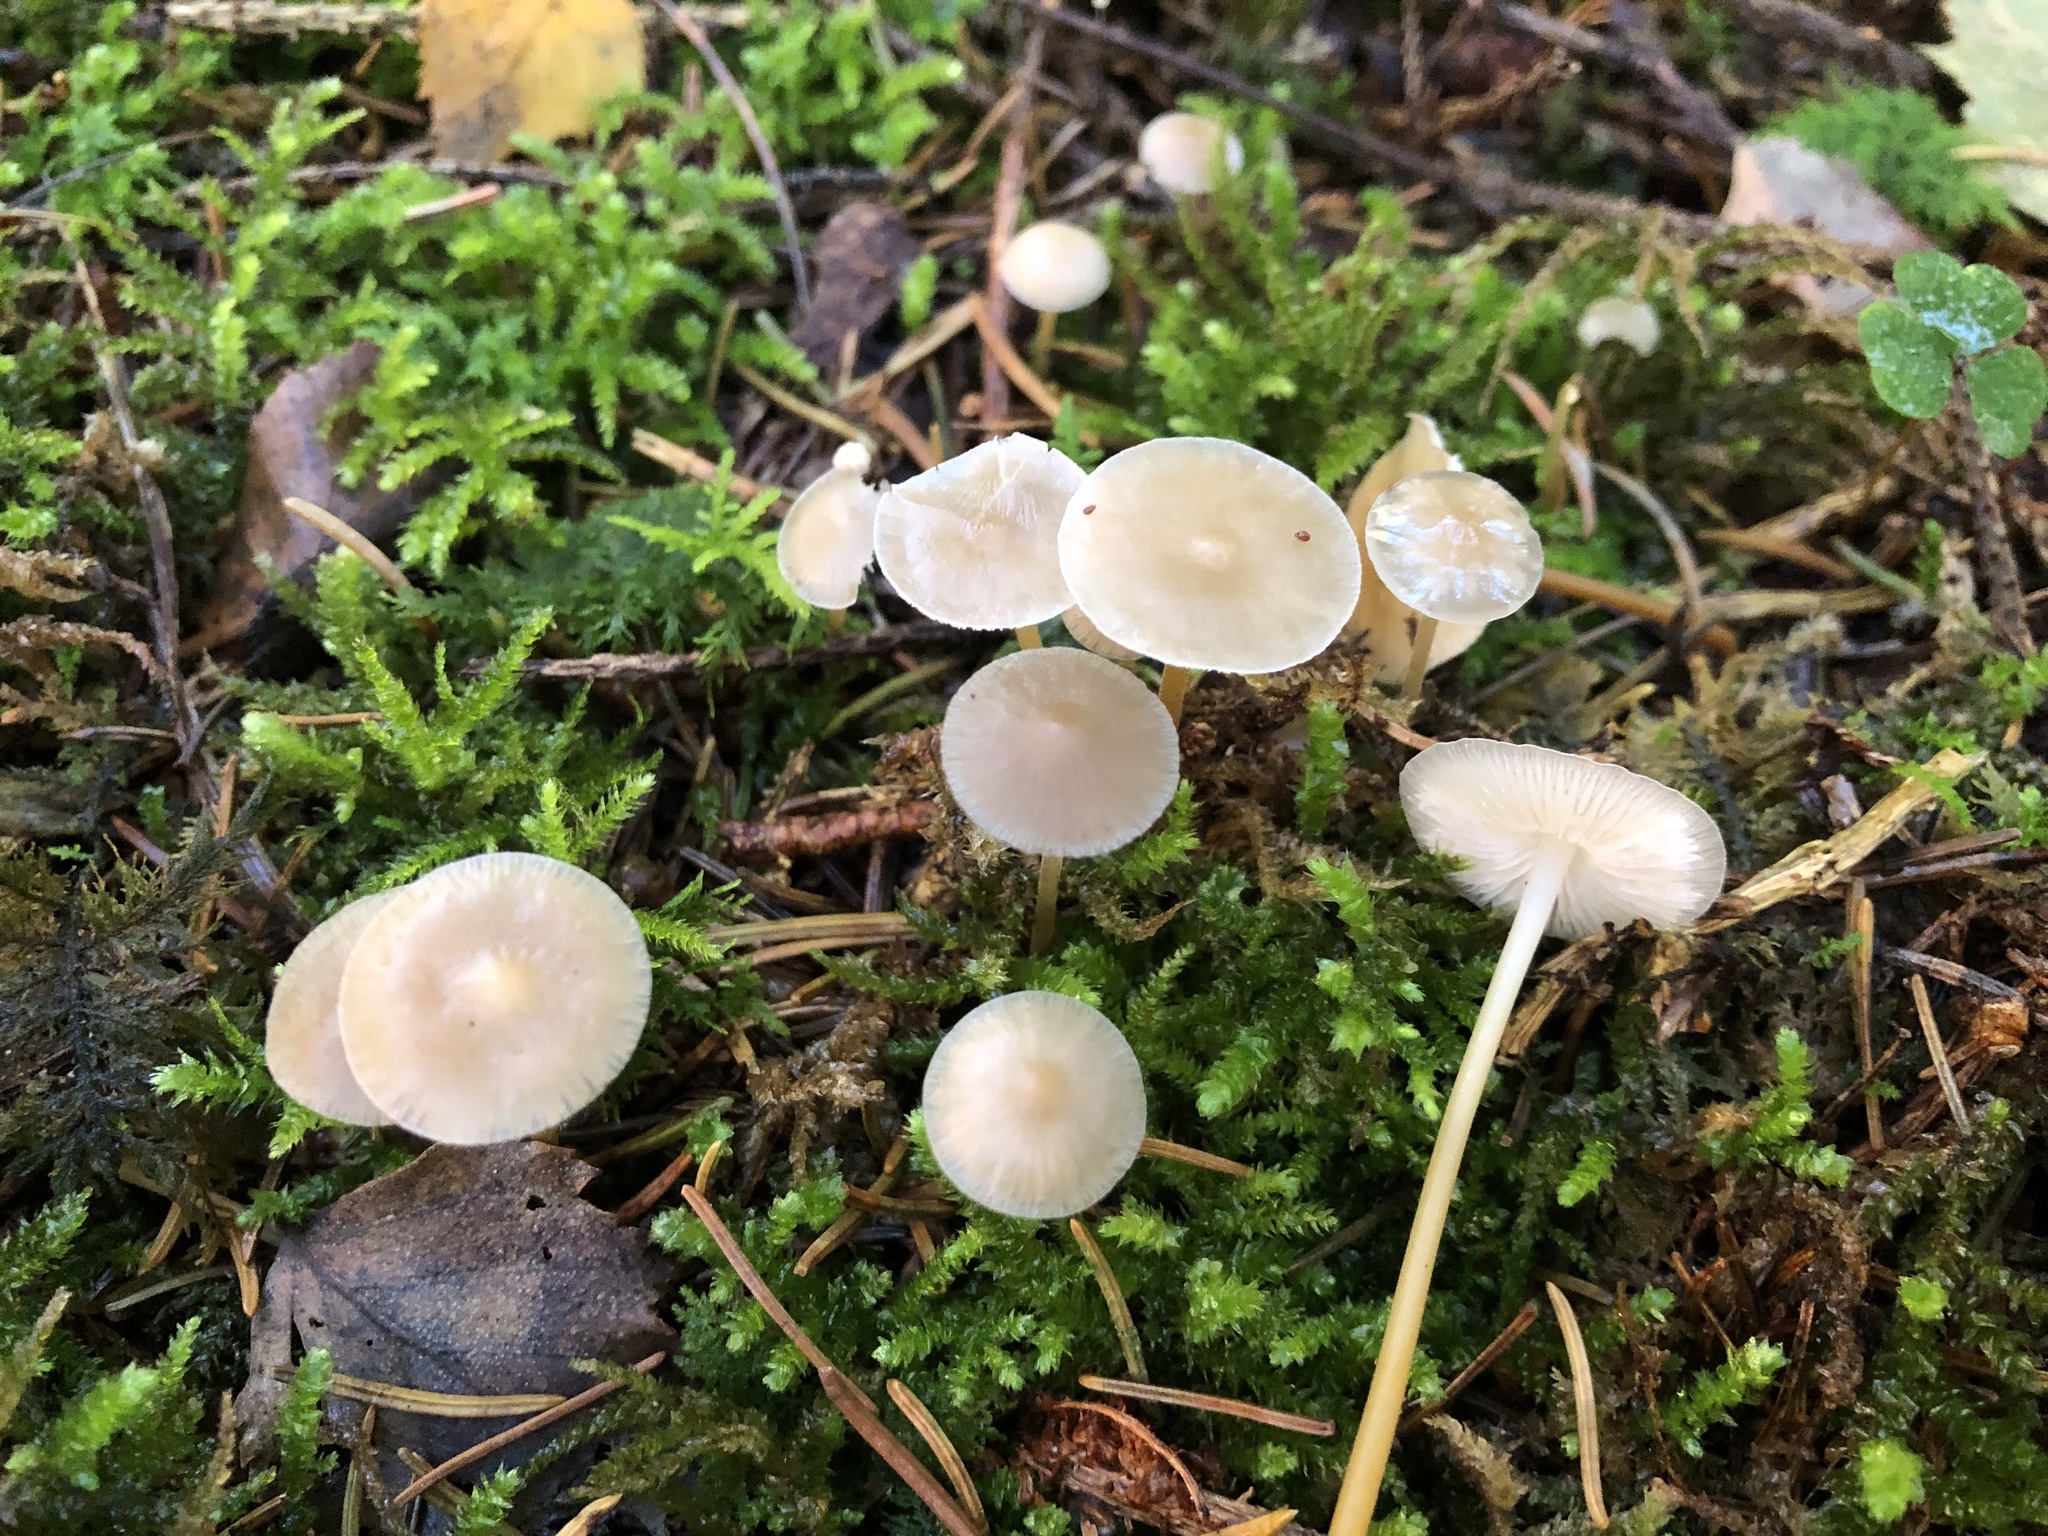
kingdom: Fungi
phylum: Basidiomycota
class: Agaricomycetes
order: Agaricales
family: Physalacriaceae
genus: Strobilurus
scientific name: Strobilurus conigenus
